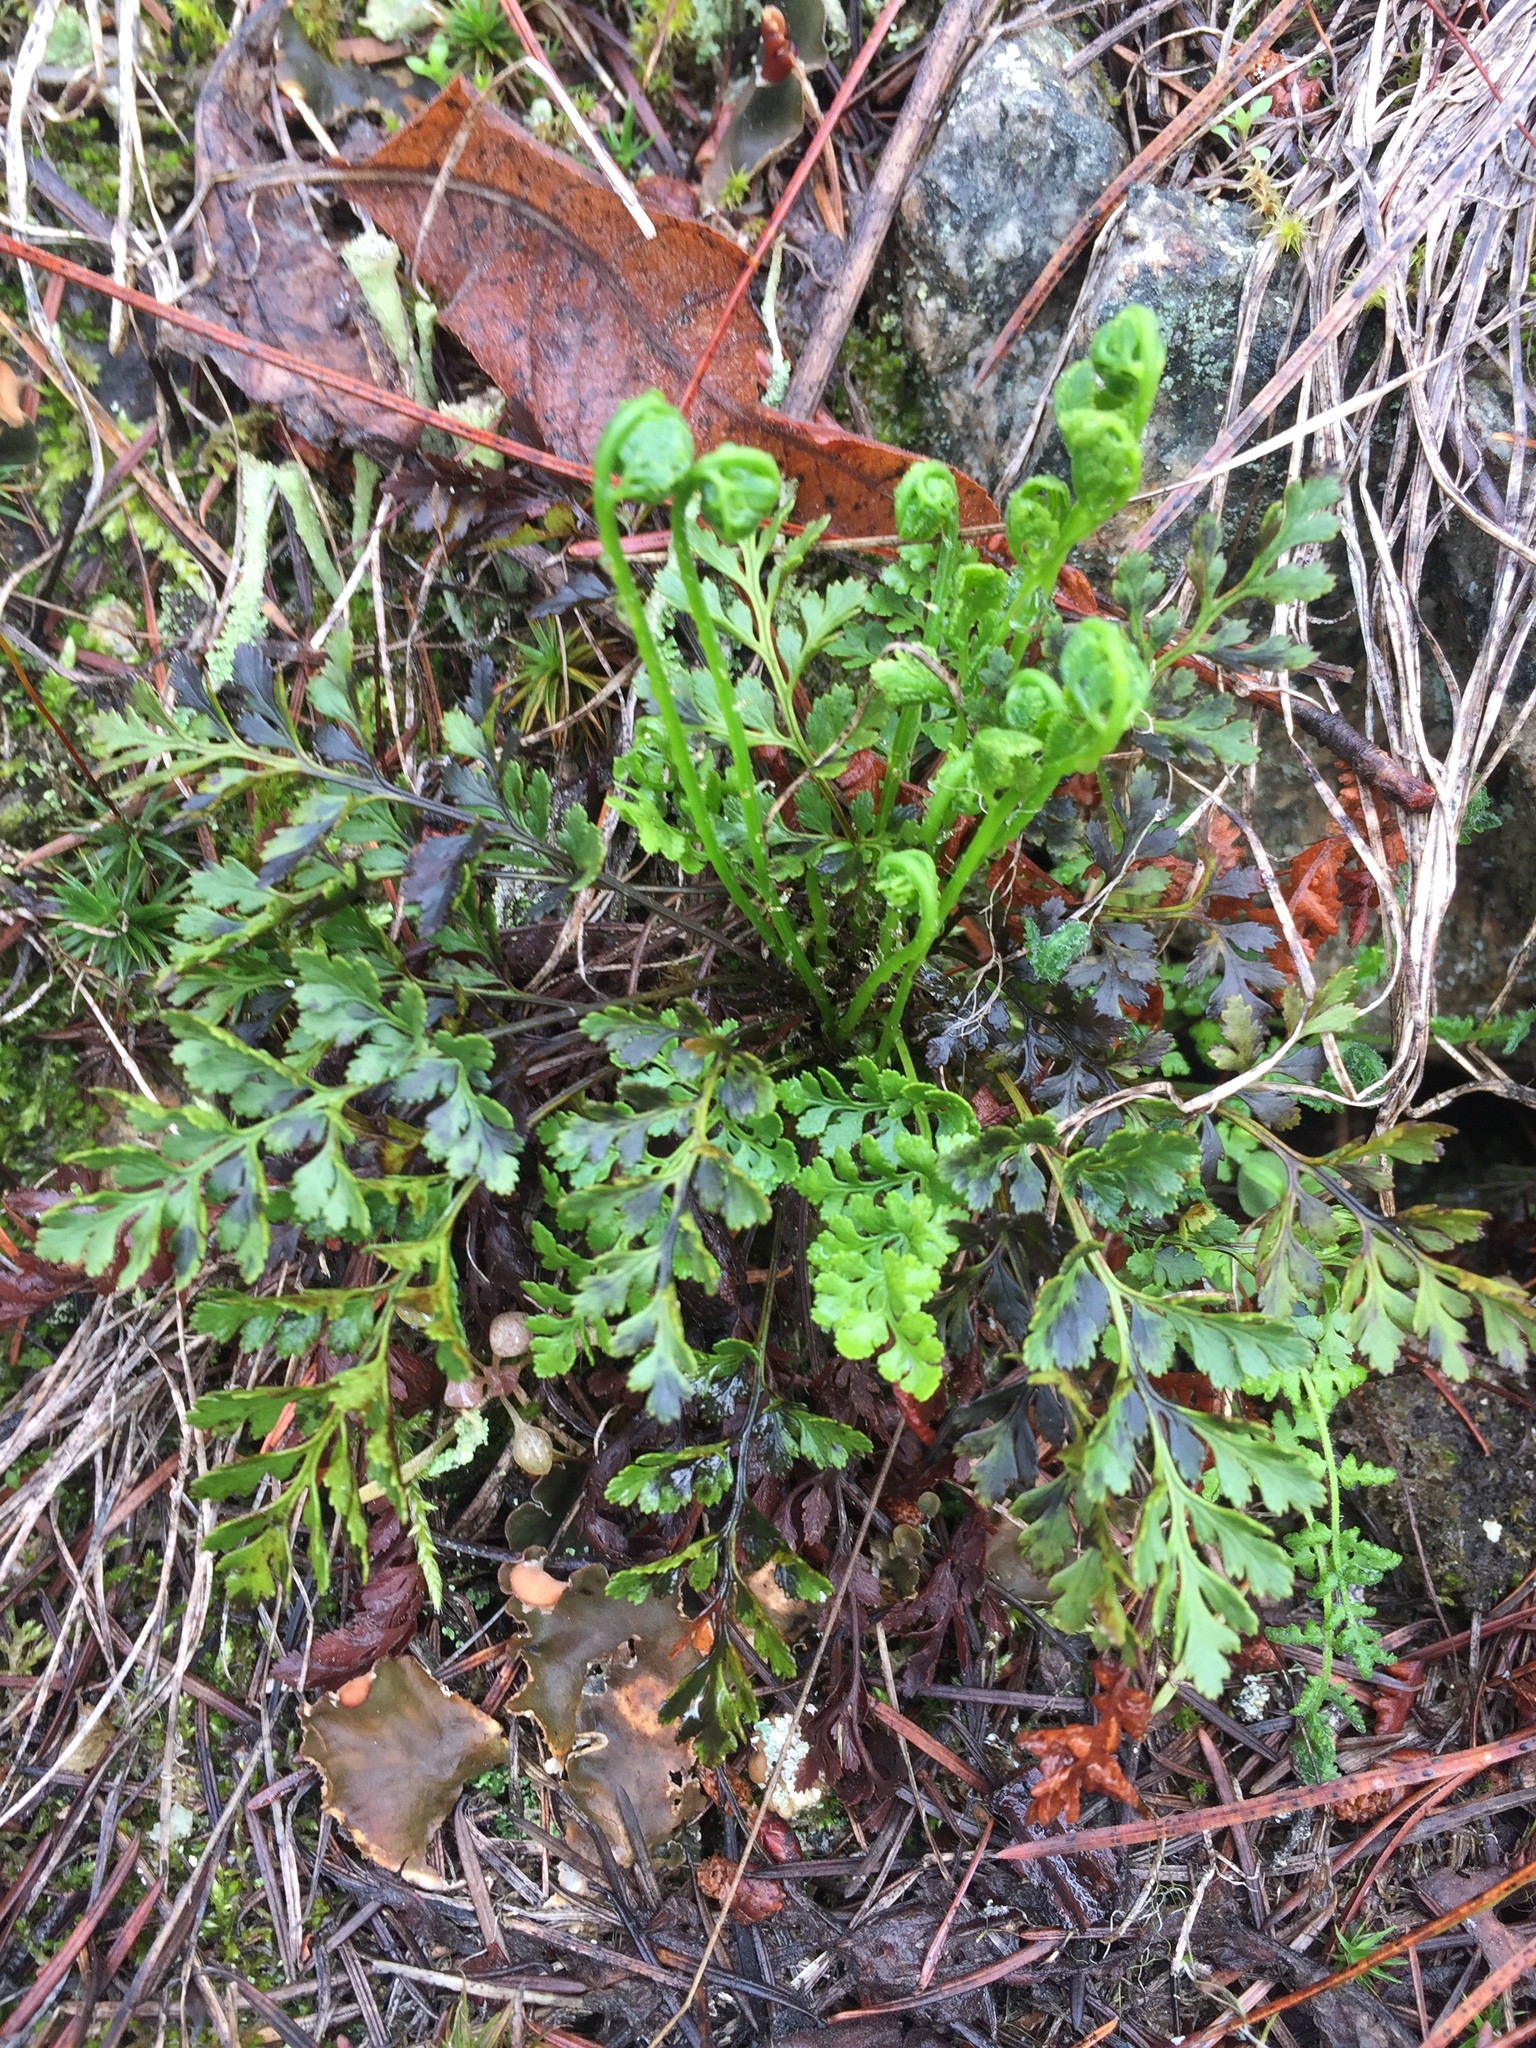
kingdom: Plantae
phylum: Tracheophyta
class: Polypodiopsida
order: Polypodiales
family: Pteridaceae
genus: Cryptogramma
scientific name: Cryptogramma acrostichoides
